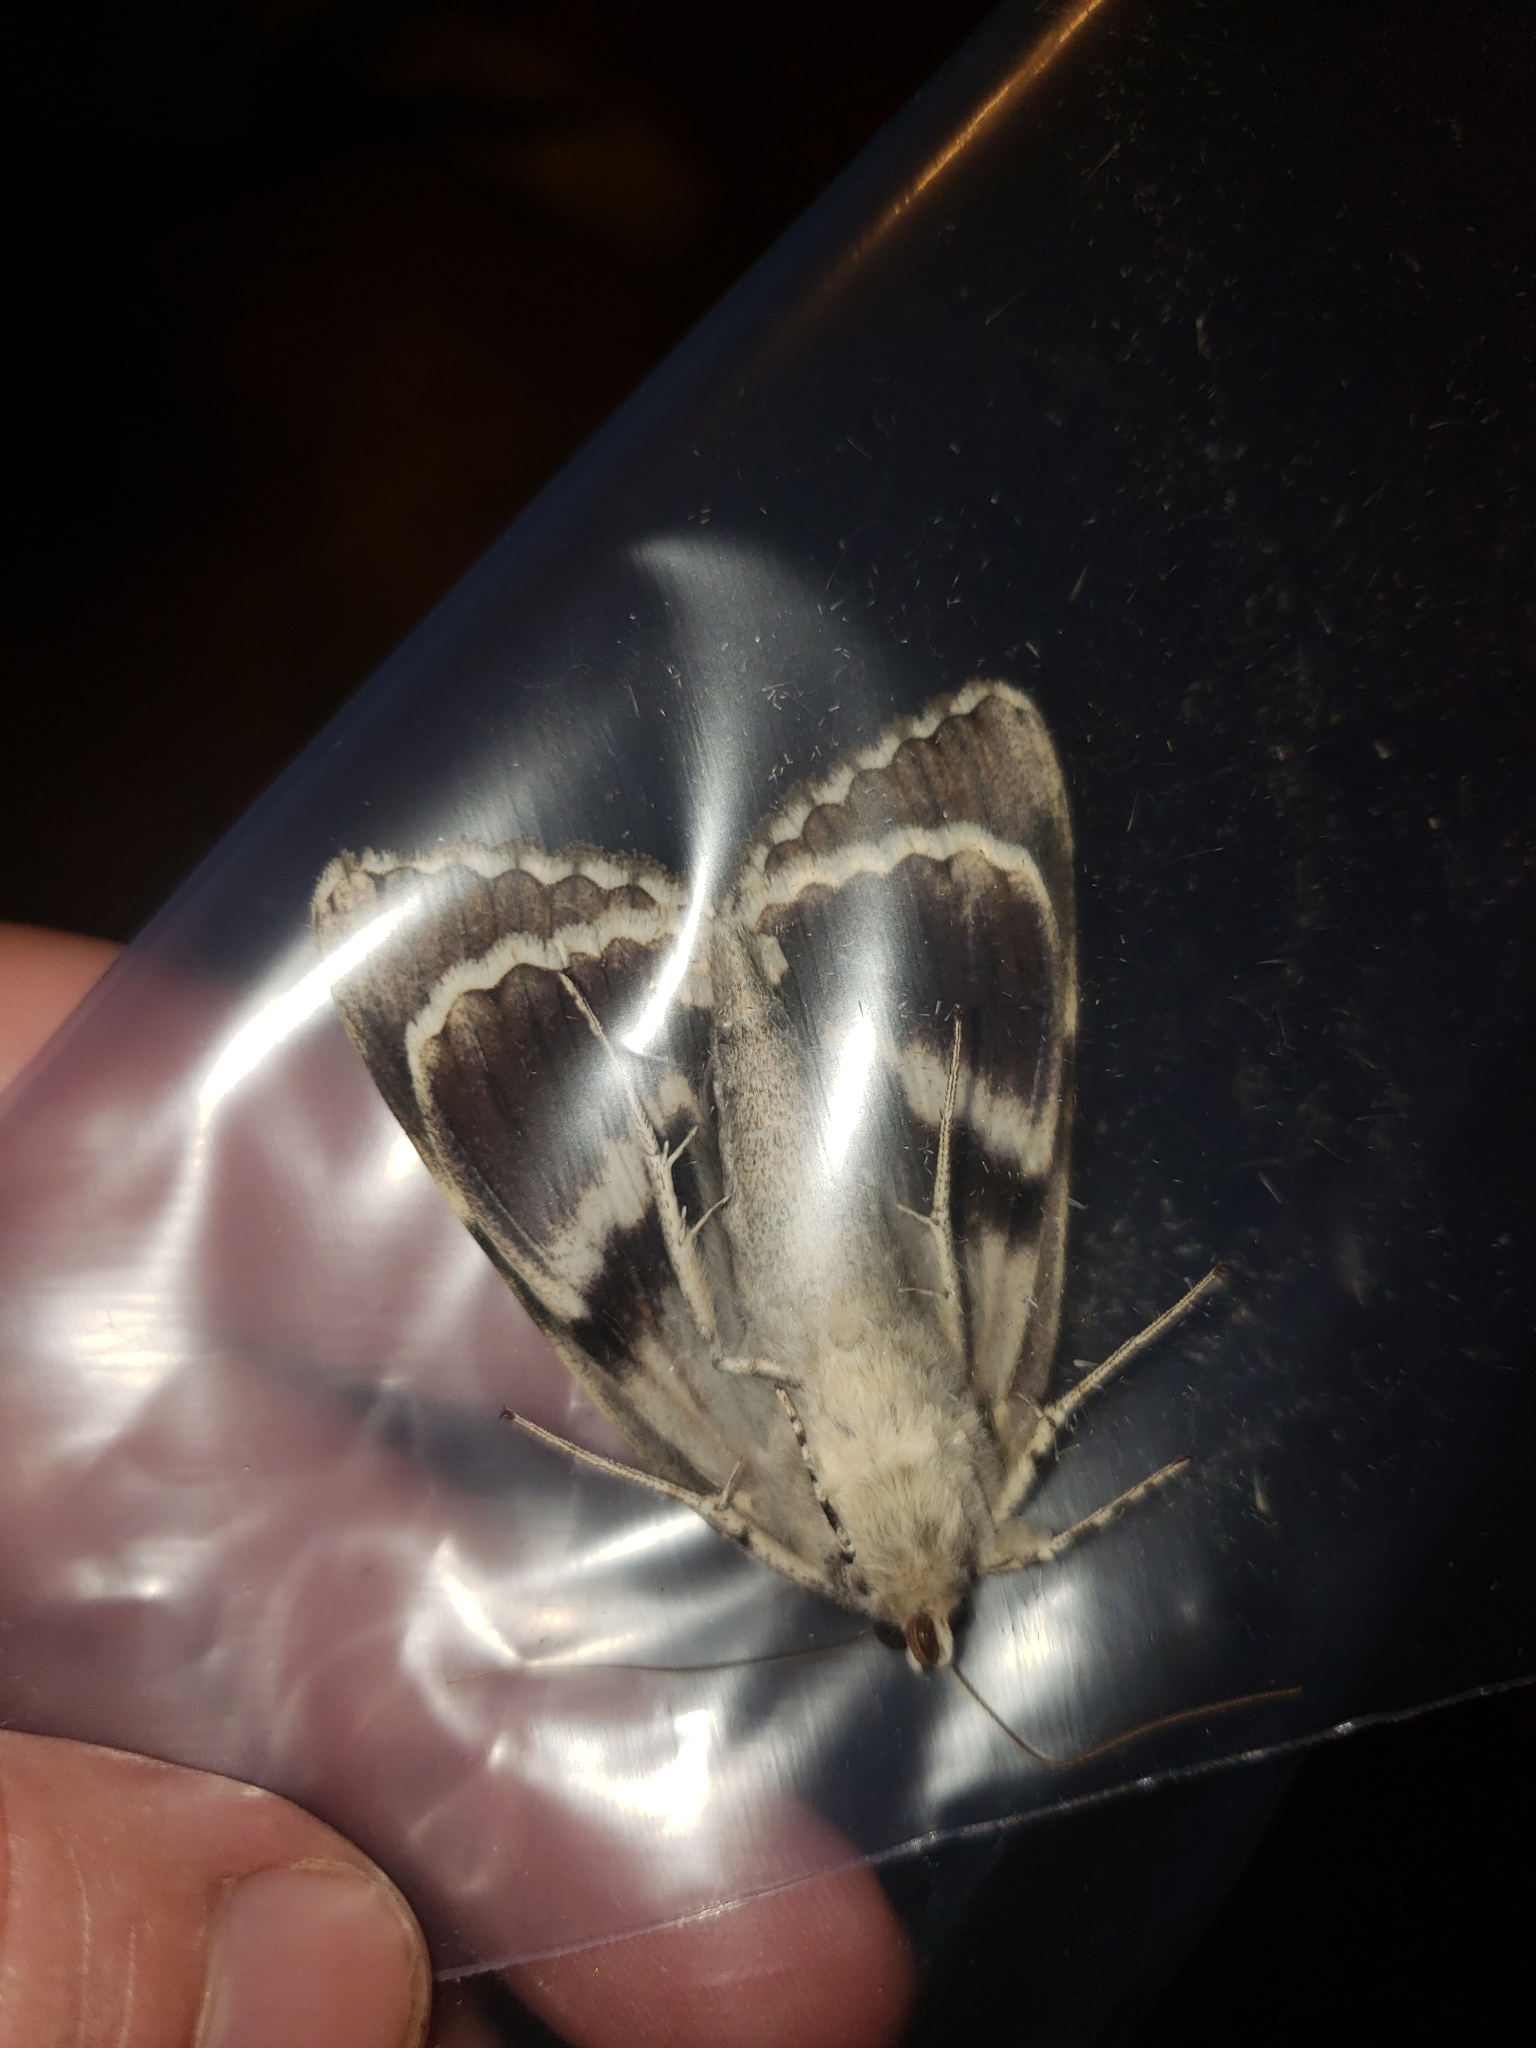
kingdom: Animalia
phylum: Arthropoda
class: Insecta
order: Lepidoptera
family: Erebidae
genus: Catocala
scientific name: Catocala vidua
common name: The widow
